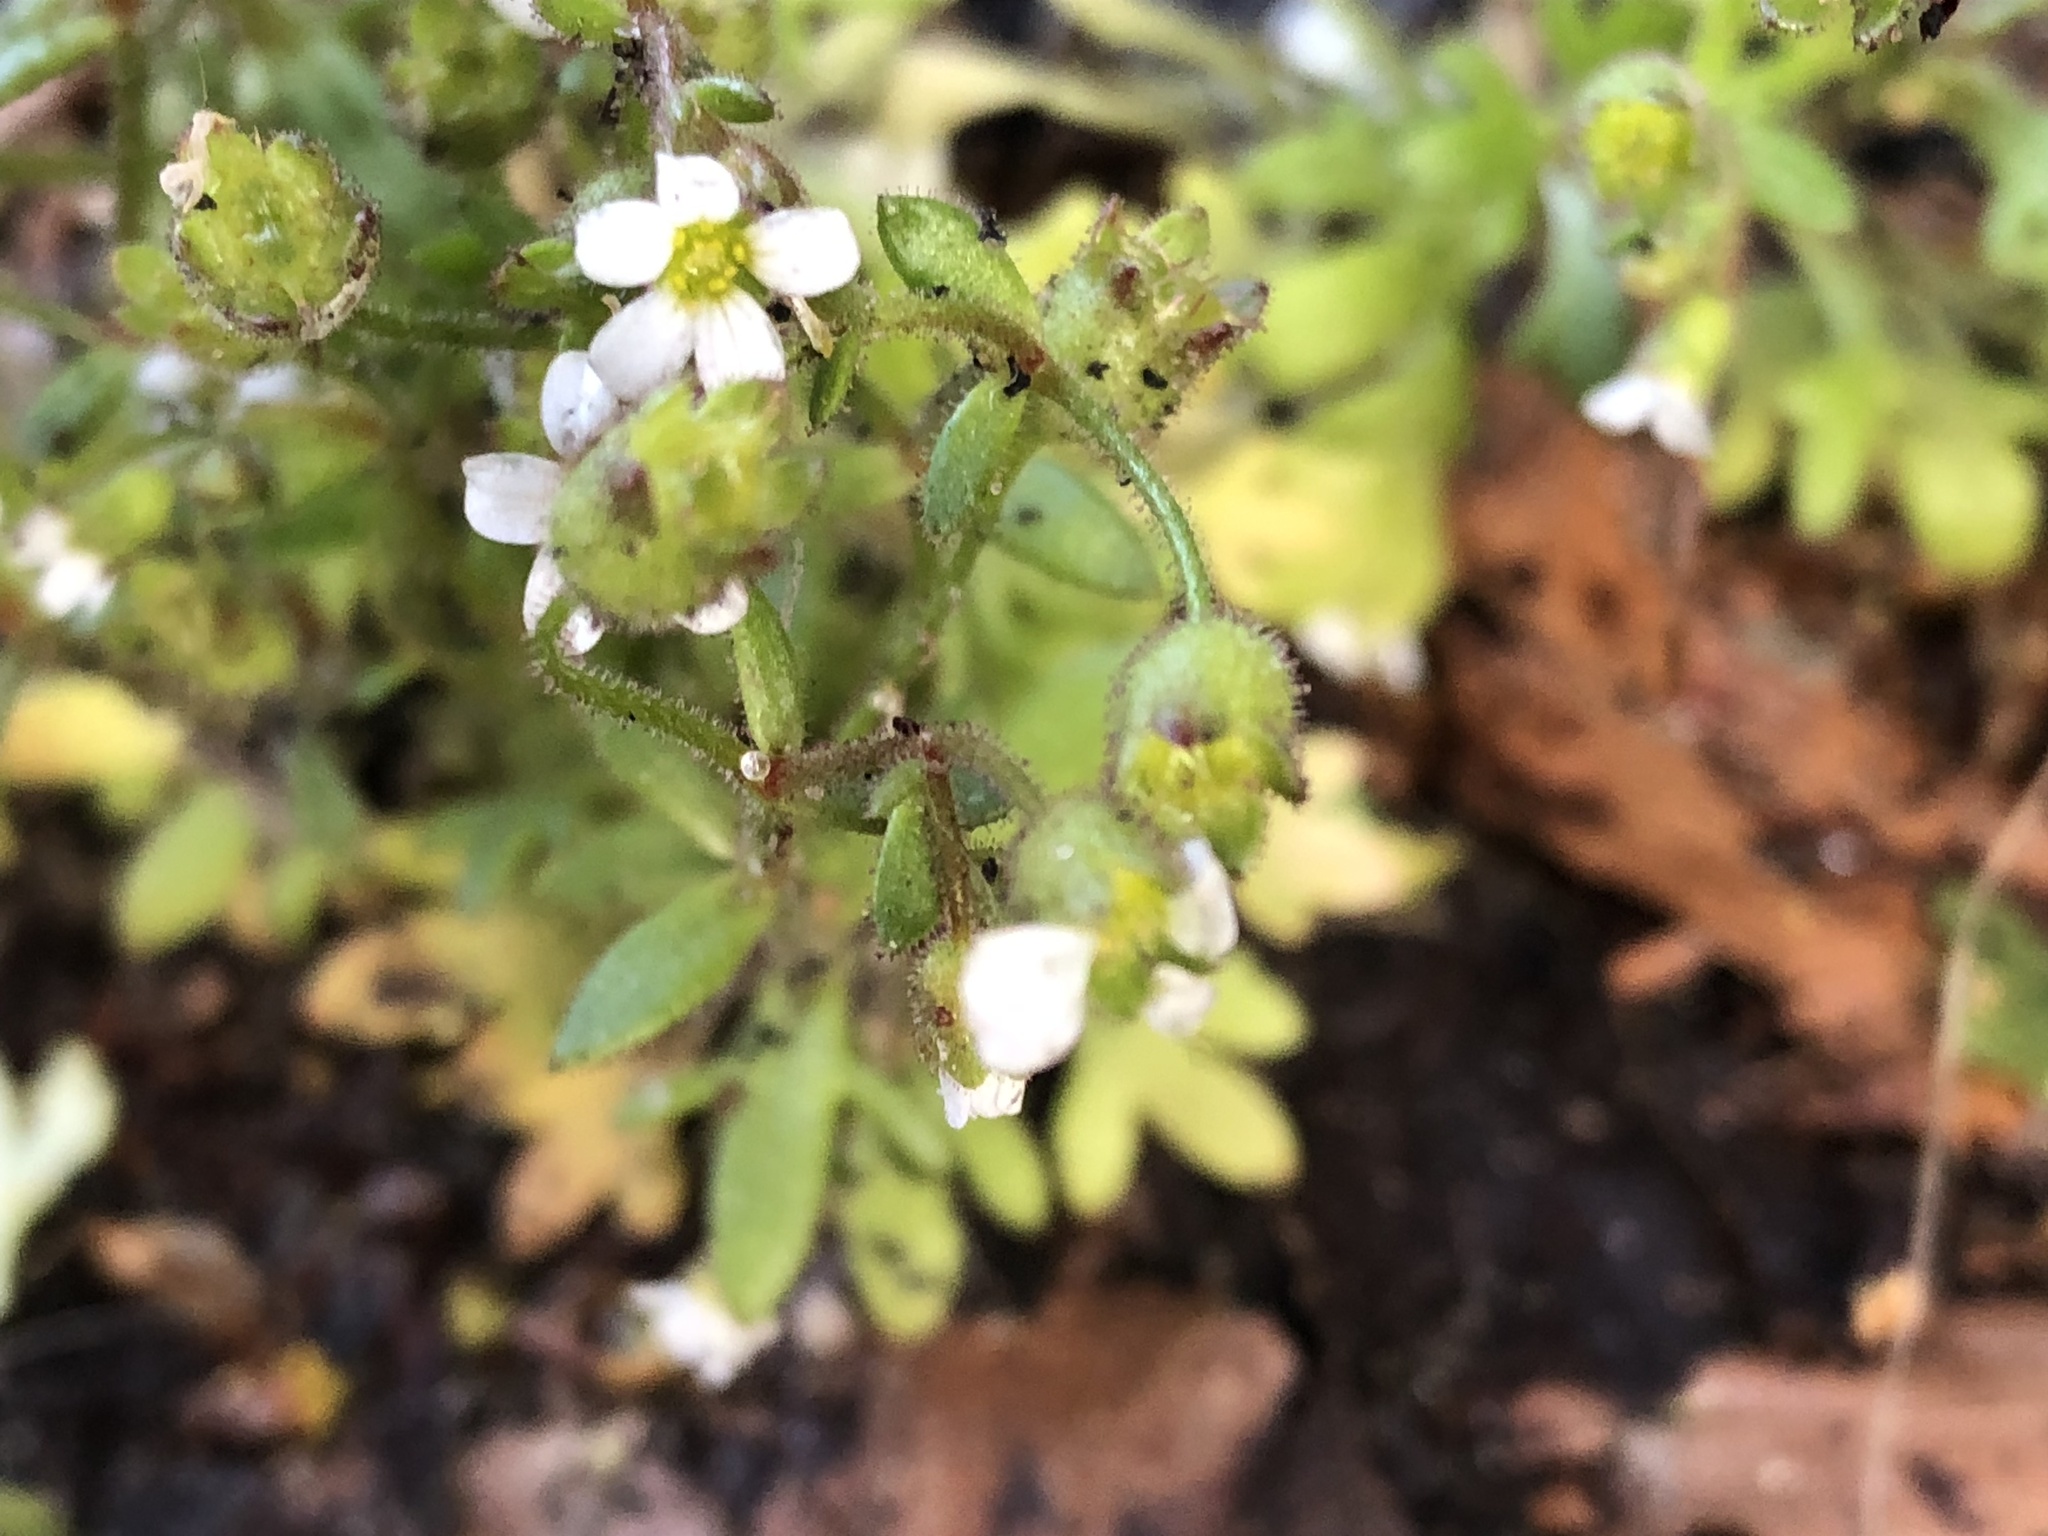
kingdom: Plantae
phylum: Tracheophyta
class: Magnoliopsida
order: Saxifragales
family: Saxifragaceae
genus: Saxifraga
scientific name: Saxifraga tridactylites
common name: Rue-leaved saxifrage
